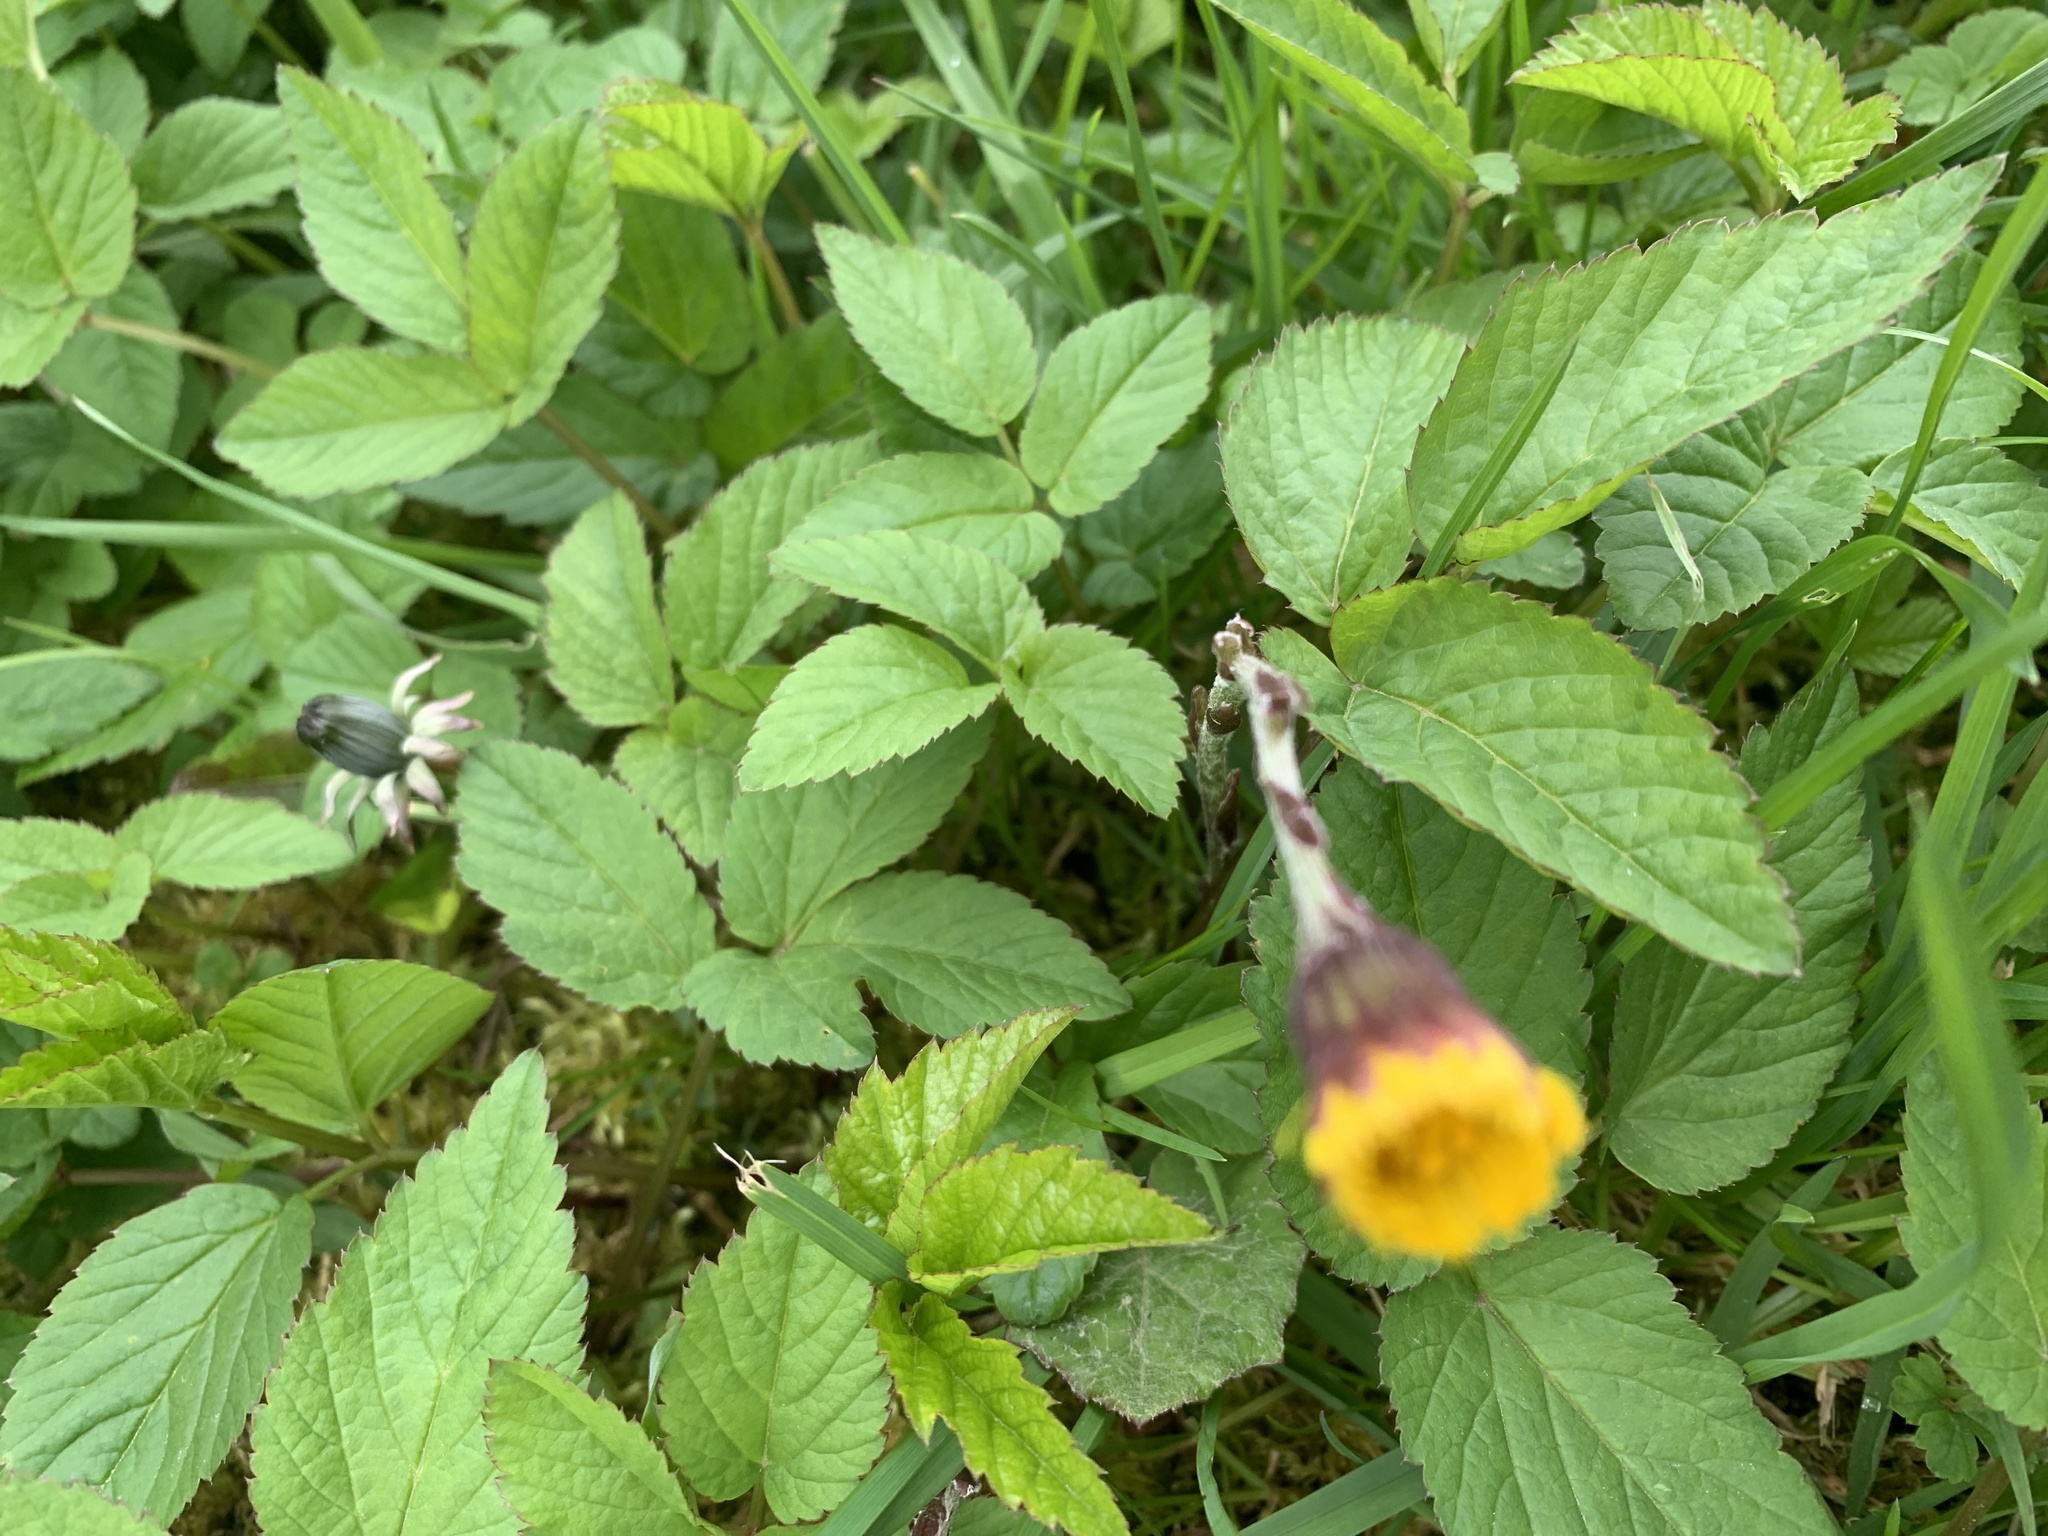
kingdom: Plantae
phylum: Tracheophyta
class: Magnoliopsida
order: Asterales
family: Asteraceae
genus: Tussilago
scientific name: Tussilago farfara
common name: Coltsfoot
